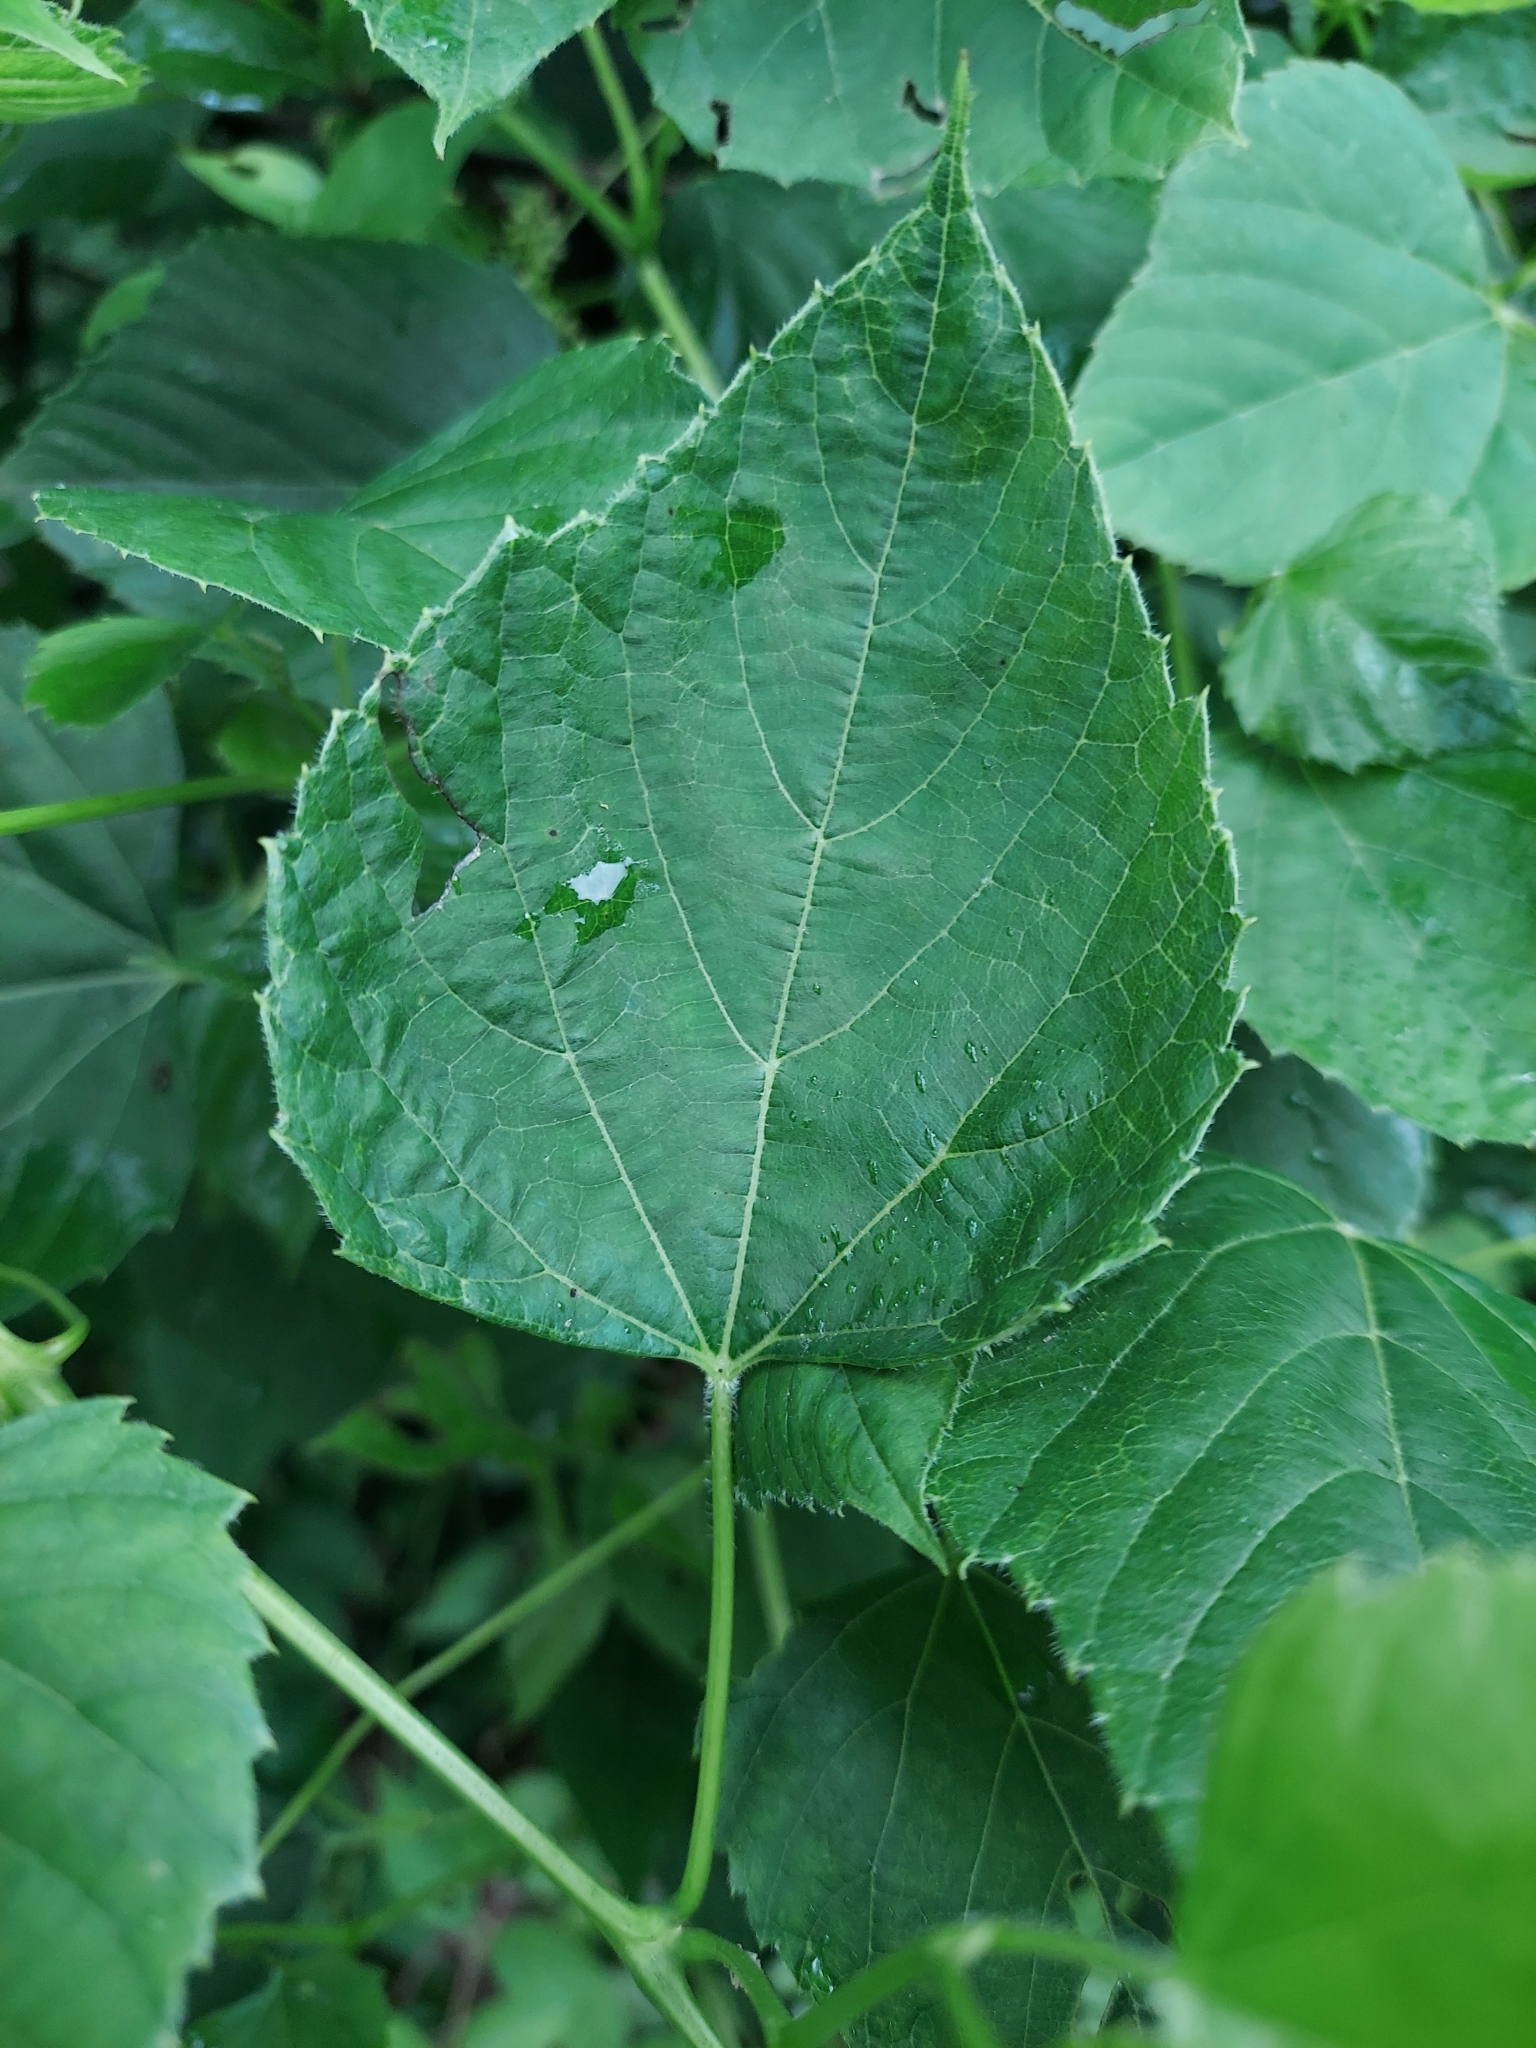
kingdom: Plantae
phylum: Tracheophyta
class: Magnoliopsida
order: Vitales
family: Vitaceae
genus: Ampelopsis
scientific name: Ampelopsis cordata
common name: Heart-leaf ampelopsis
